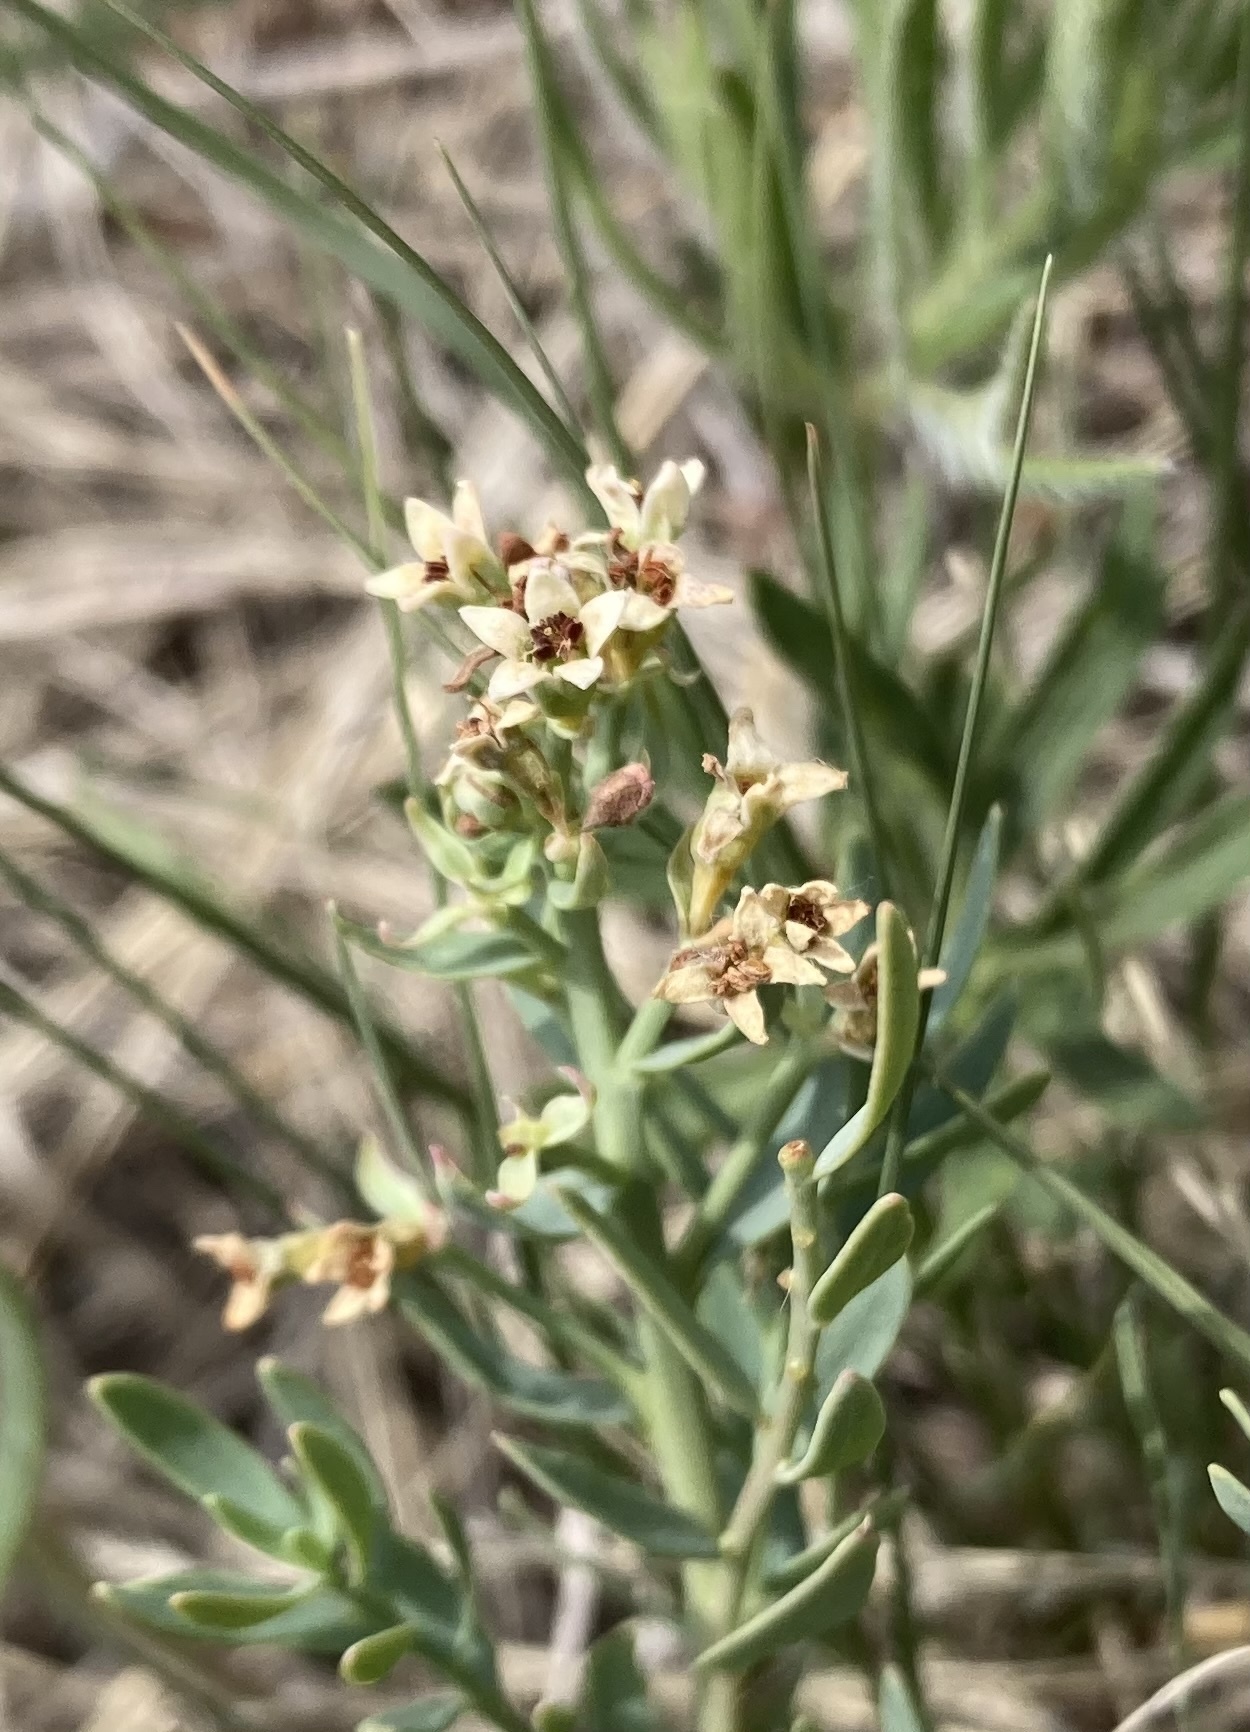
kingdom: Plantae
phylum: Tracheophyta
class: Magnoliopsida
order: Santalales
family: Comandraceae
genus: Comandra
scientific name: Comandra umbellata
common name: Bastard toadflax
